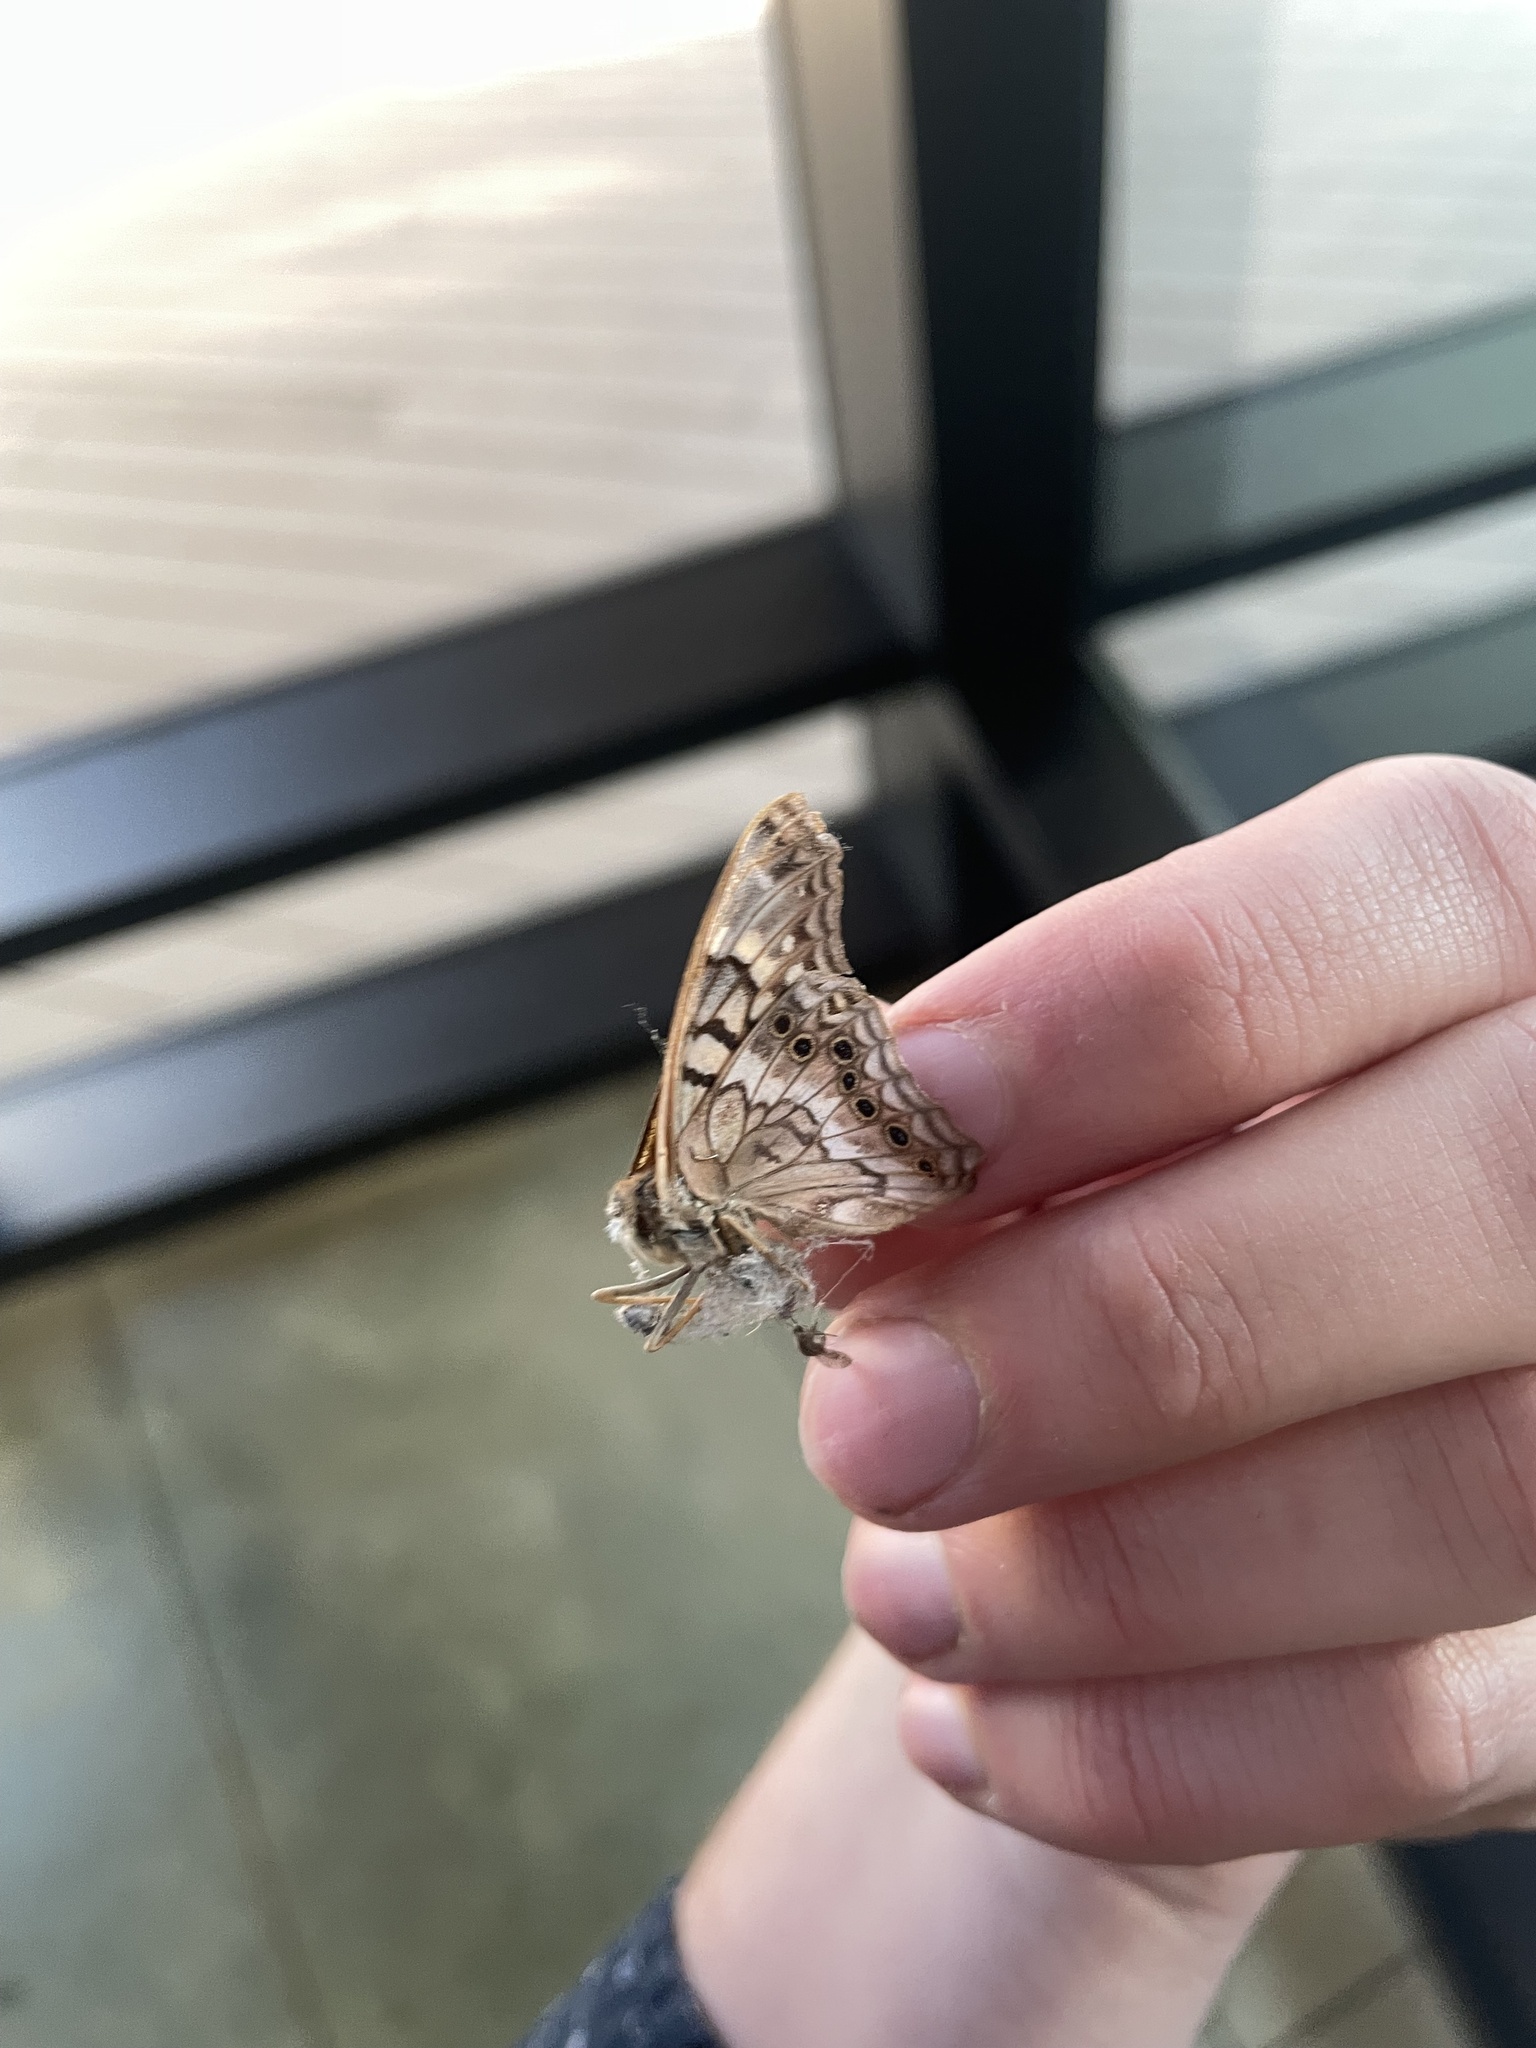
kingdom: Animalia
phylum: Arthropoda
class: Insecta
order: Lepidoptera
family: Nymphalidae
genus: Asterocampa
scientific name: Asterocampa clyton
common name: Tawny emperor
